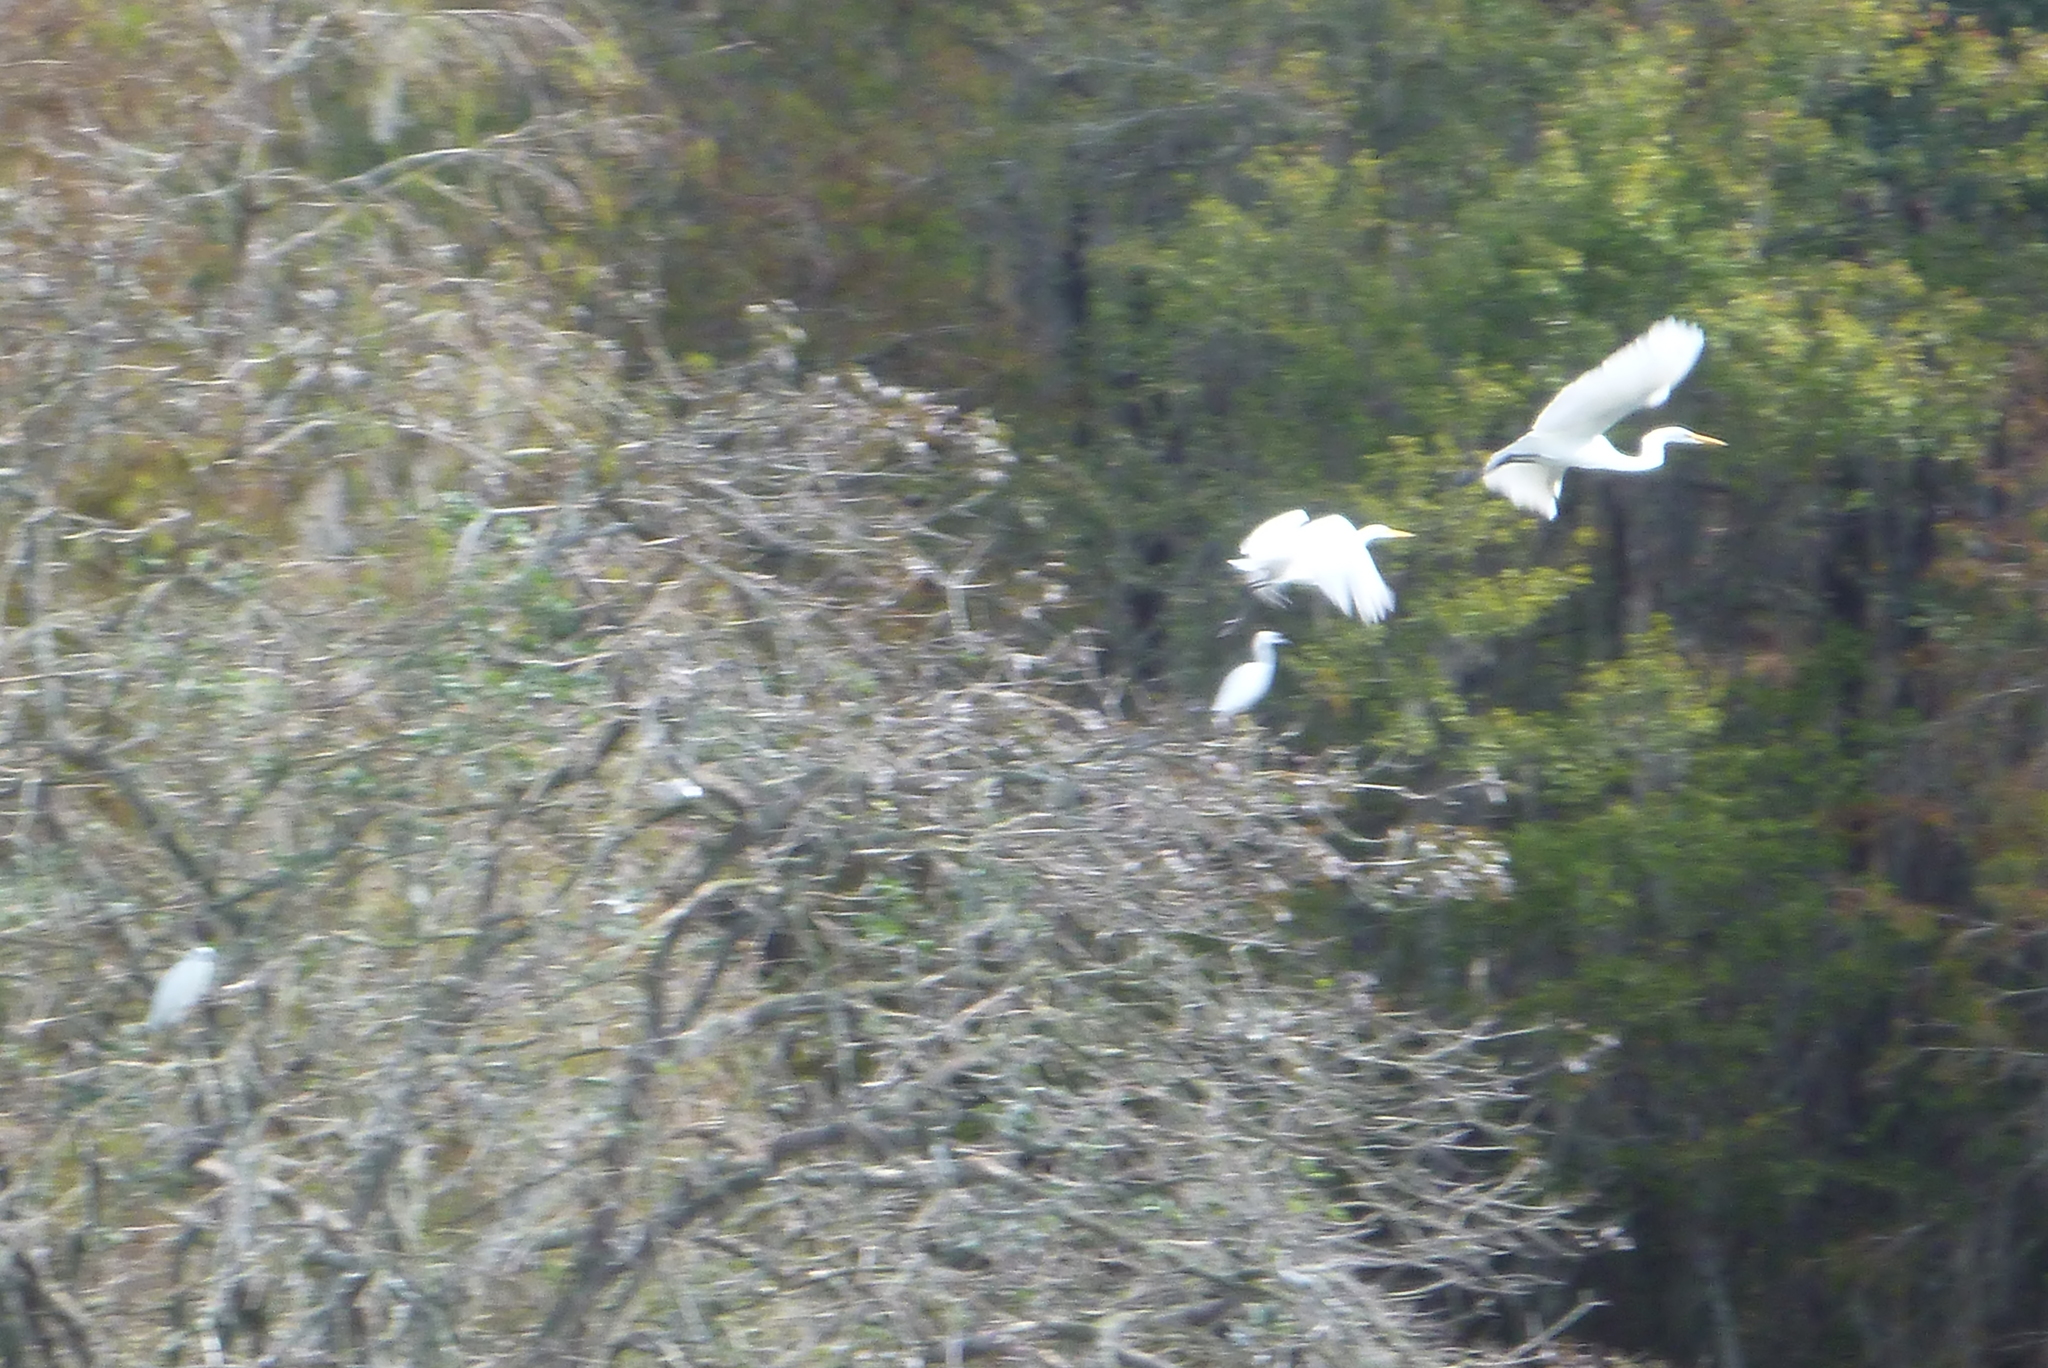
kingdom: Animalia
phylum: Chordata
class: Aves
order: Pelecaniformes
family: Ardeidae
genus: Ardea
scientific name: Ardea alba
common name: Great egret
